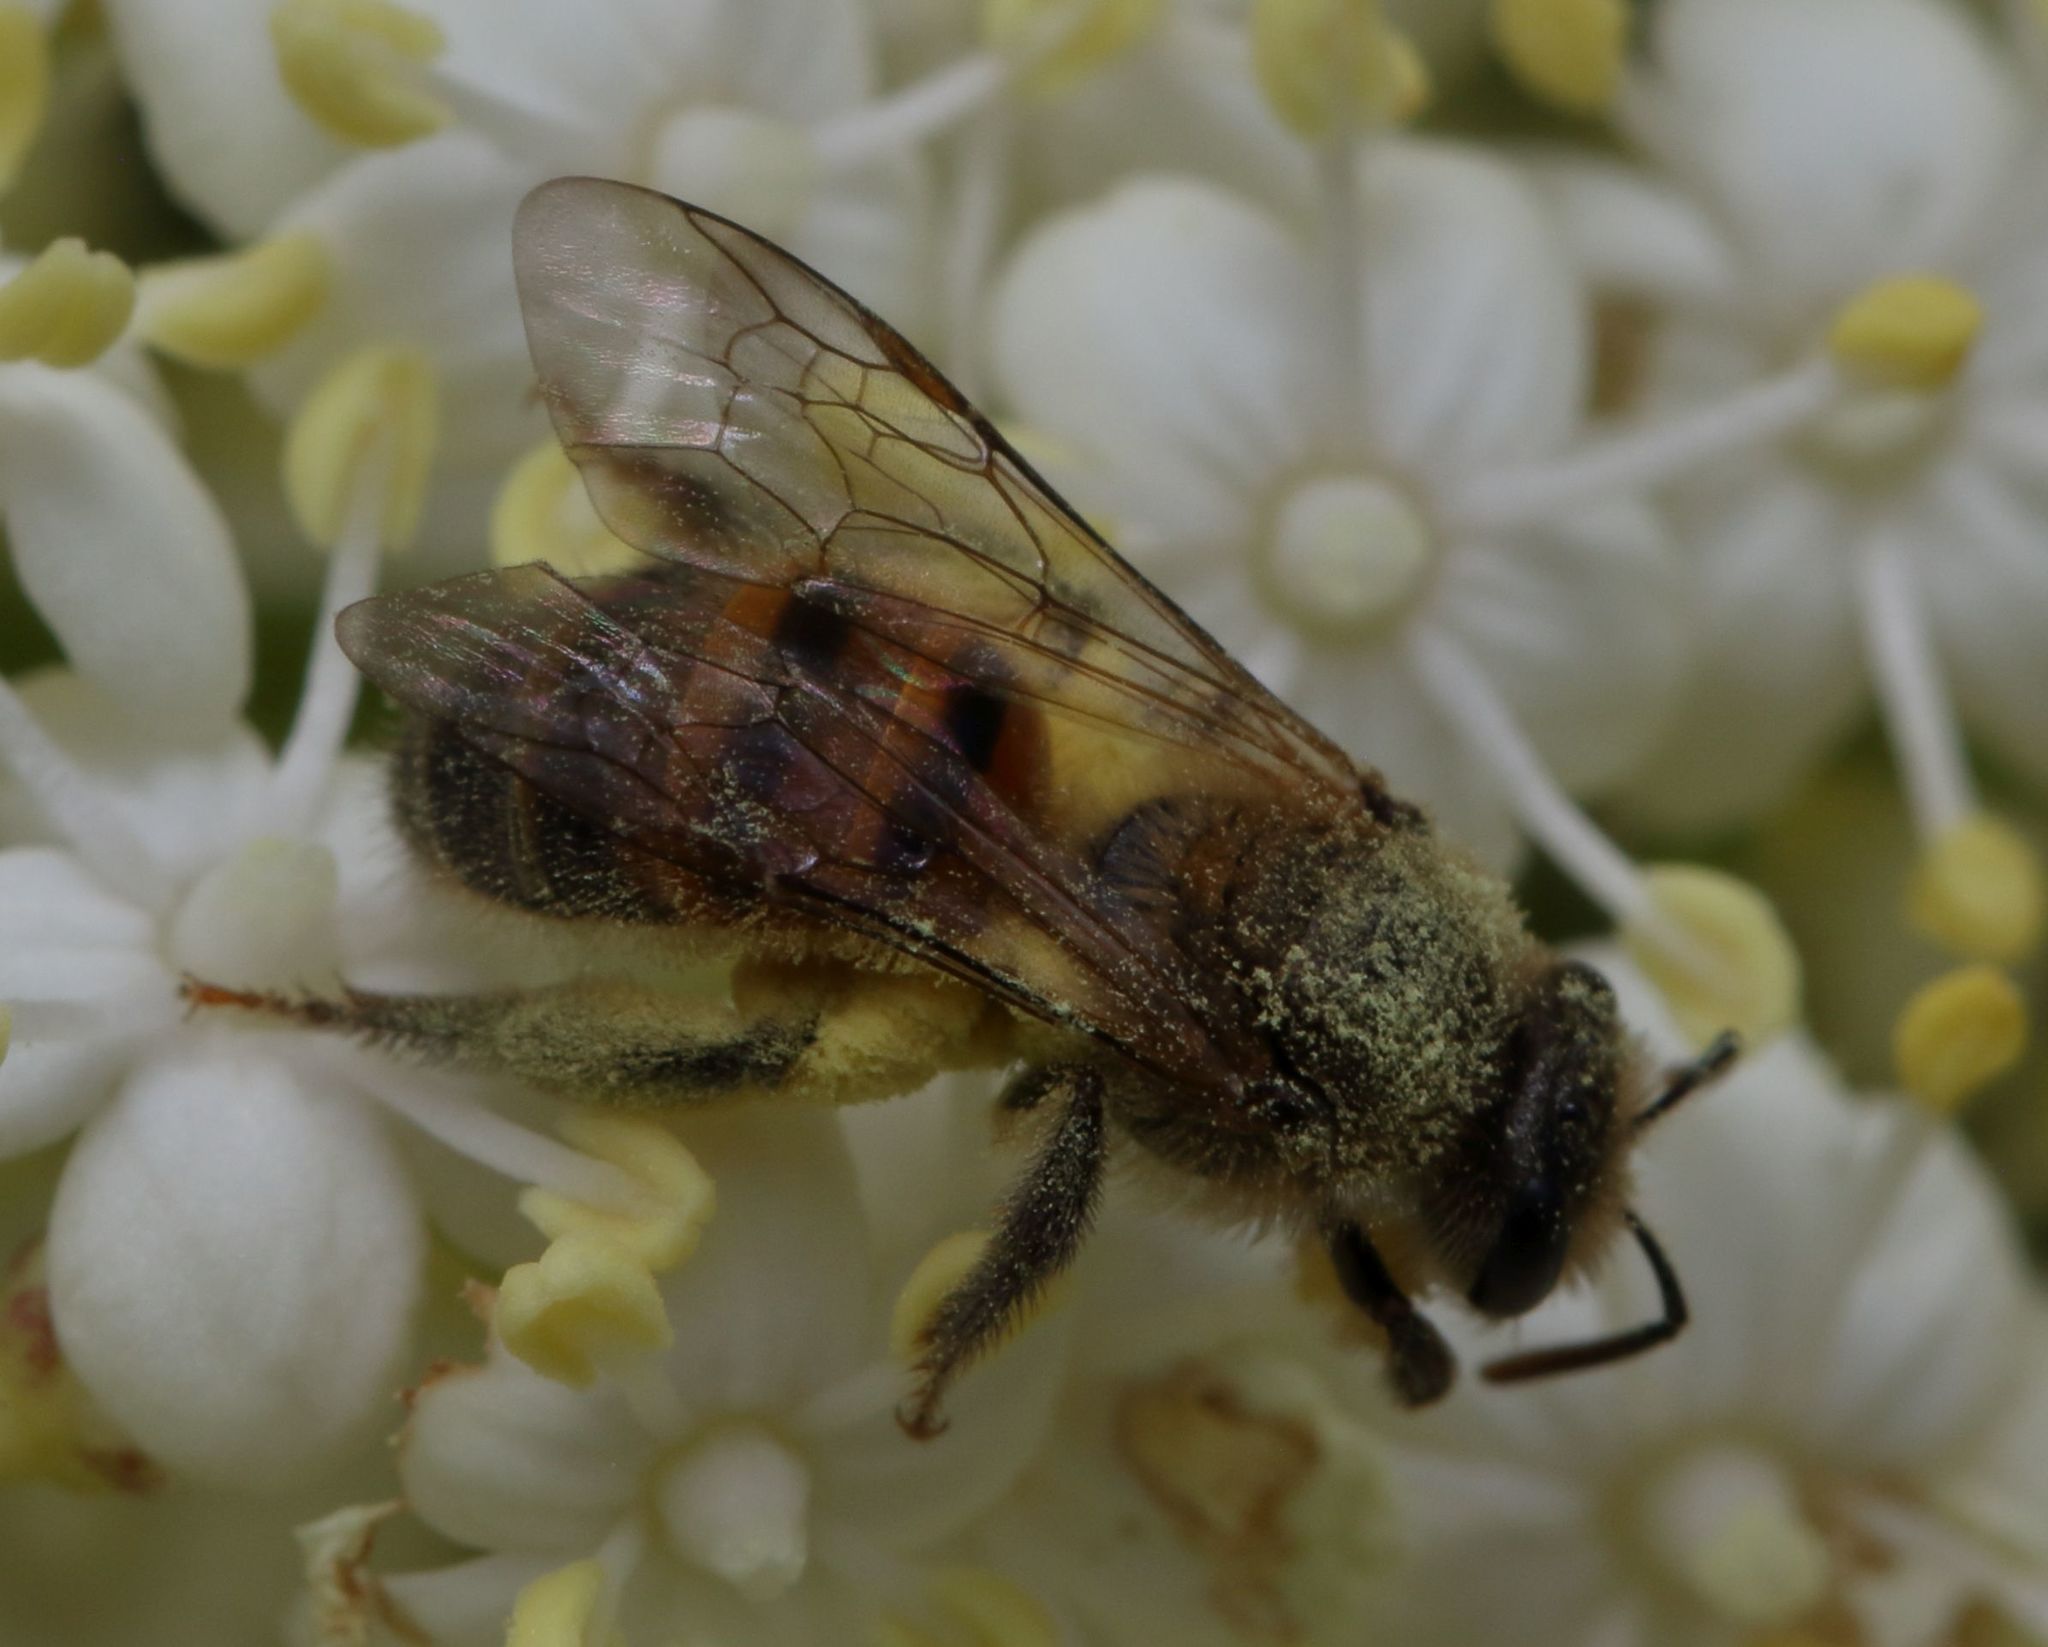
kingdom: Animalia
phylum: Arthropoda
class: Insecta
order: Hymenoptera
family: Apidae
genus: Apis
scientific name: Apis mellifera
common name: Honey bee
